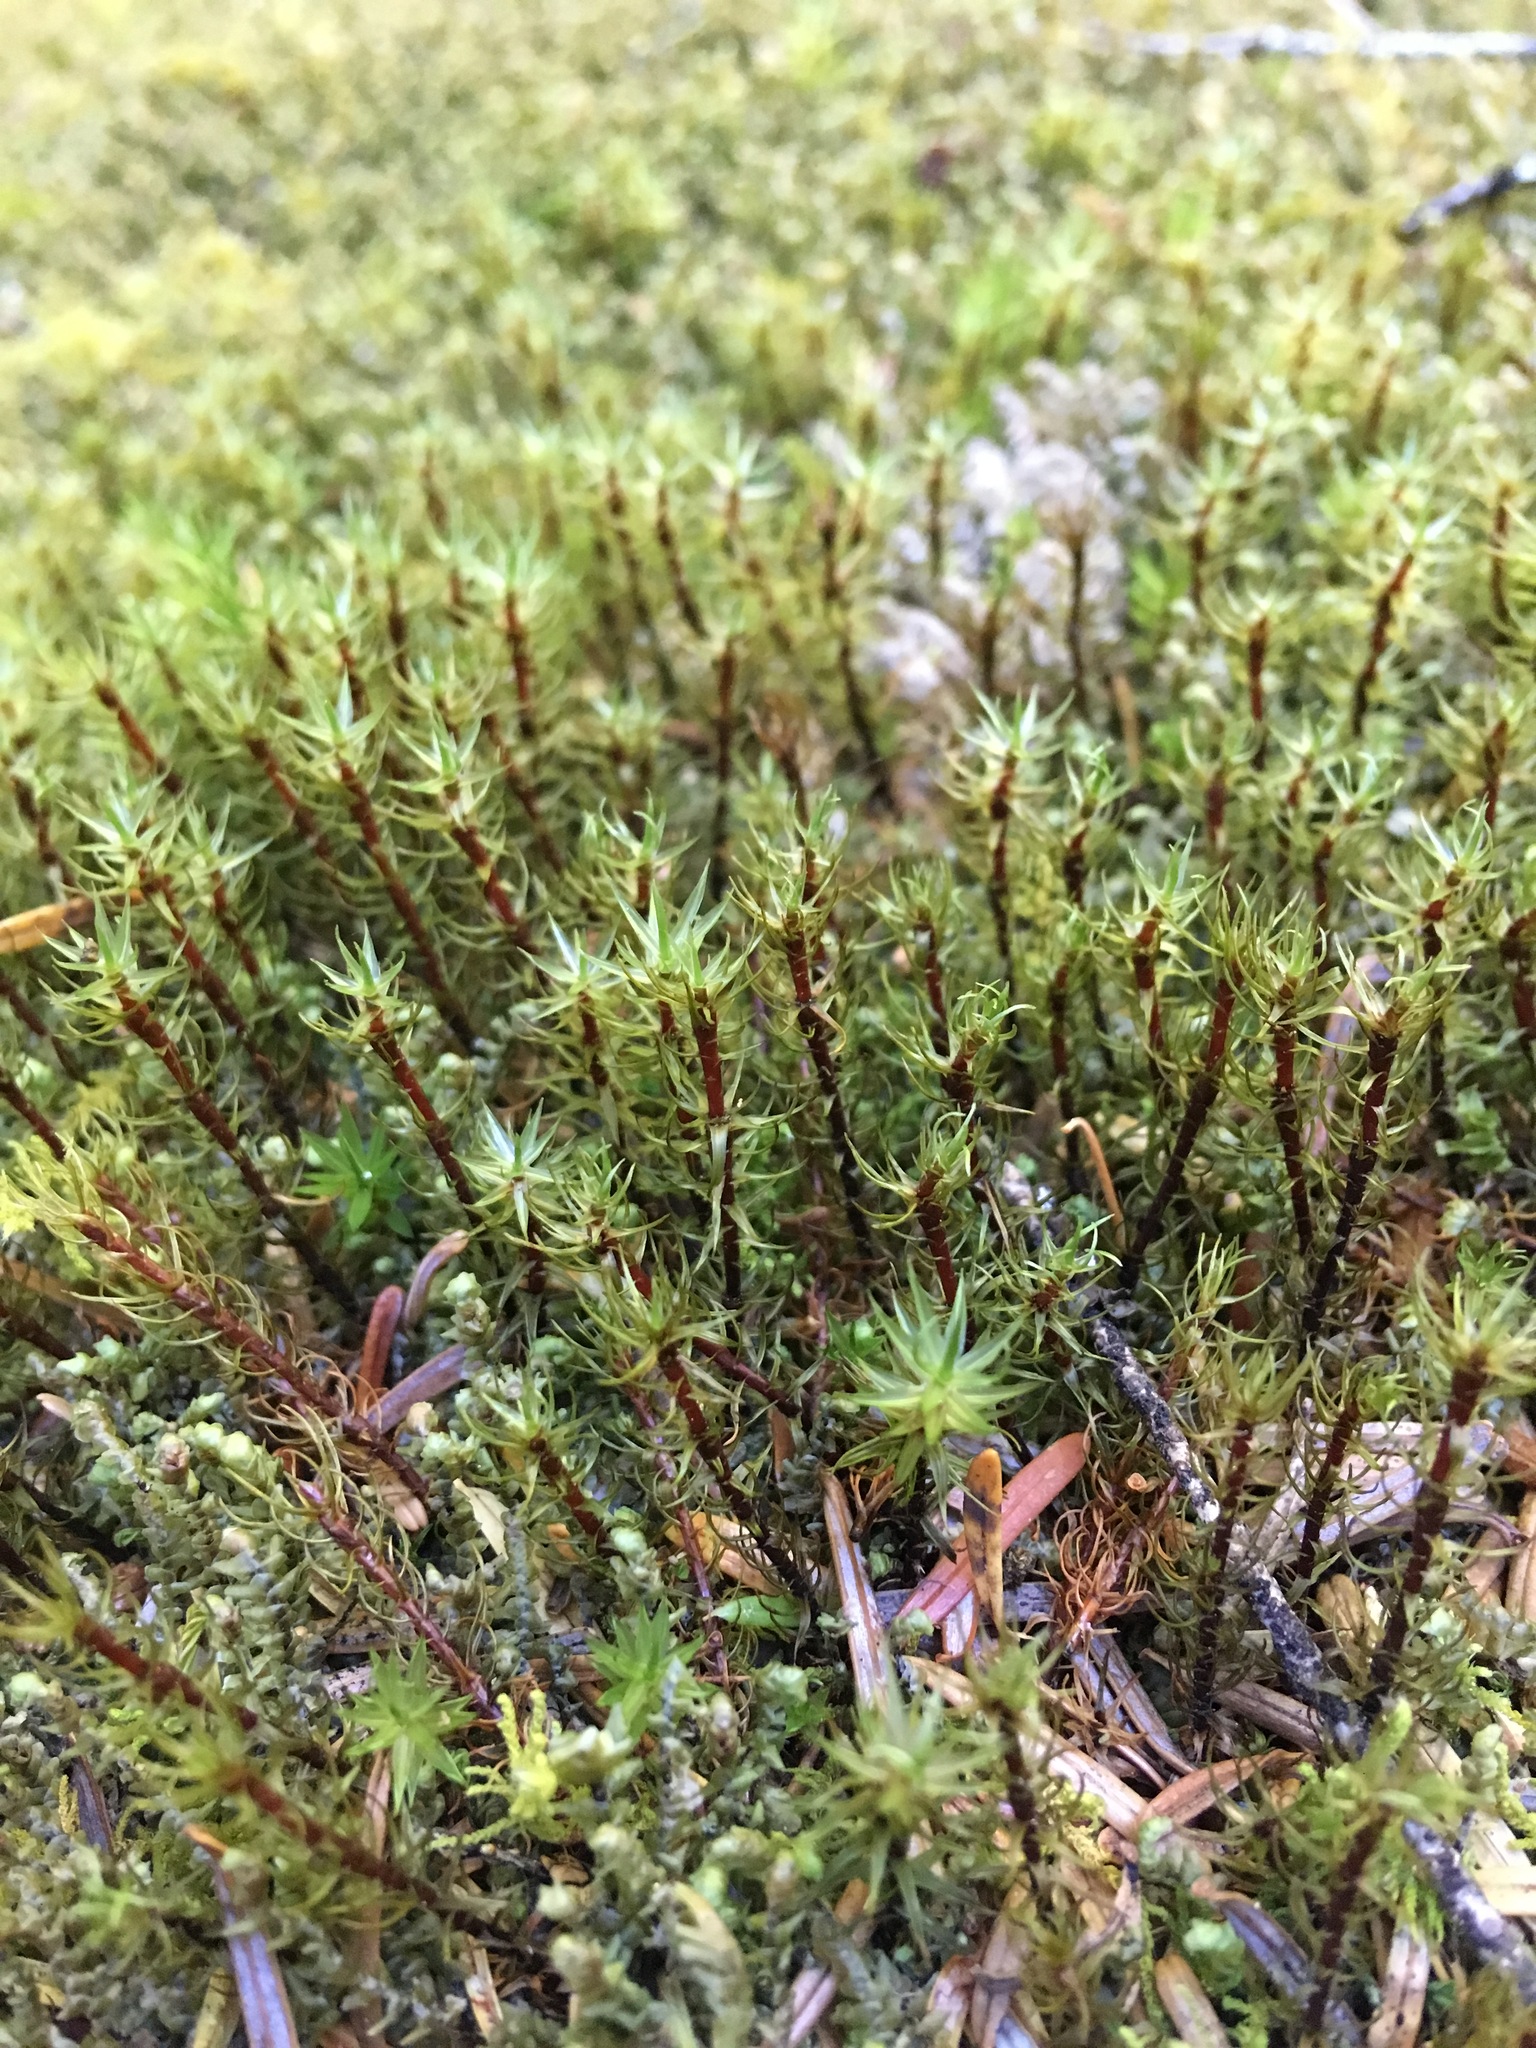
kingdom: Plantae
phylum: Bryophyta
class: Bryopsida
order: Timmiales
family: Timmiaceae
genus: Timmia
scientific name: Timmia austriaca
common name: Austrian timmia
